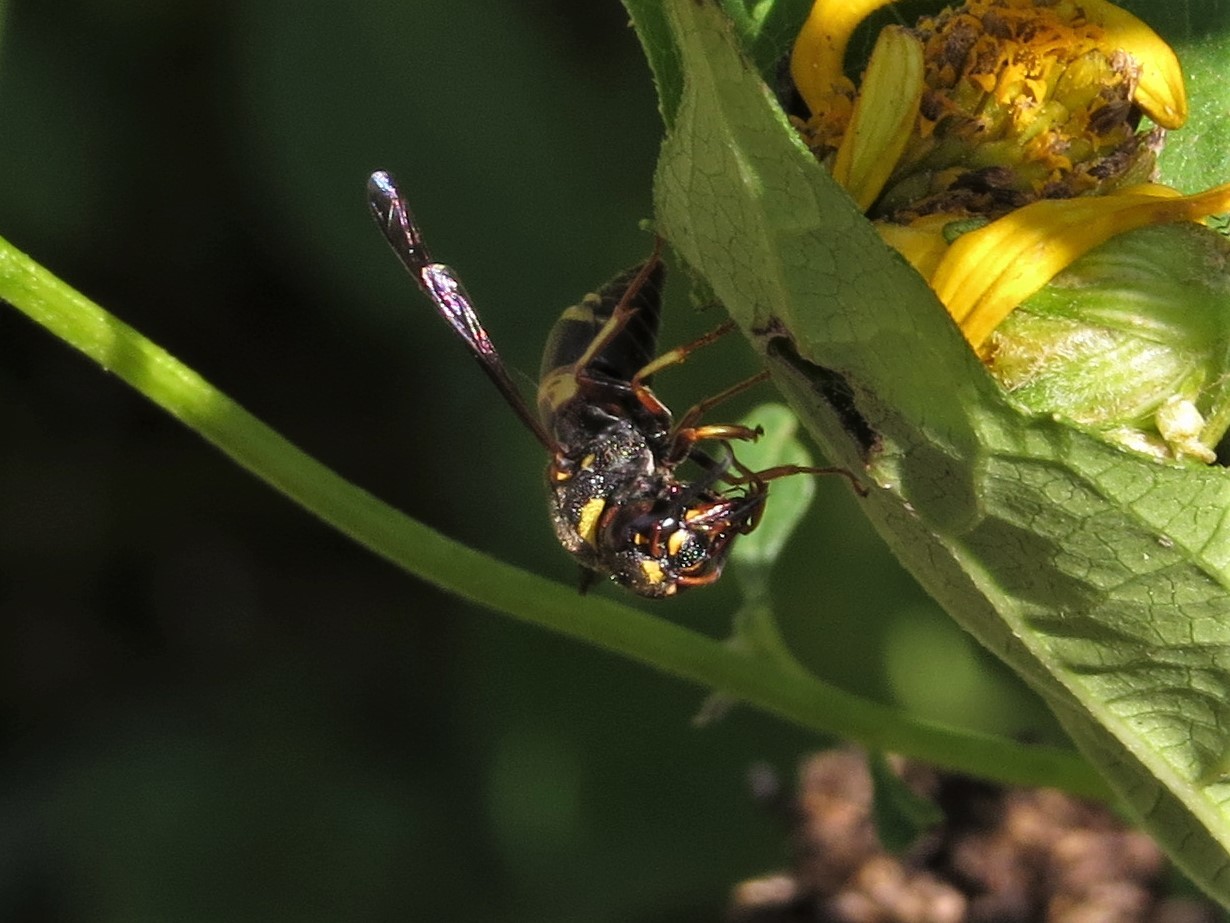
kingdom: Animalia
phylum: Arthropoda
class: Insecta
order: Hymenoptera
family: Eumenidae
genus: Euodynerus
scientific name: Euodynerus hidalgo
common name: Wasp
